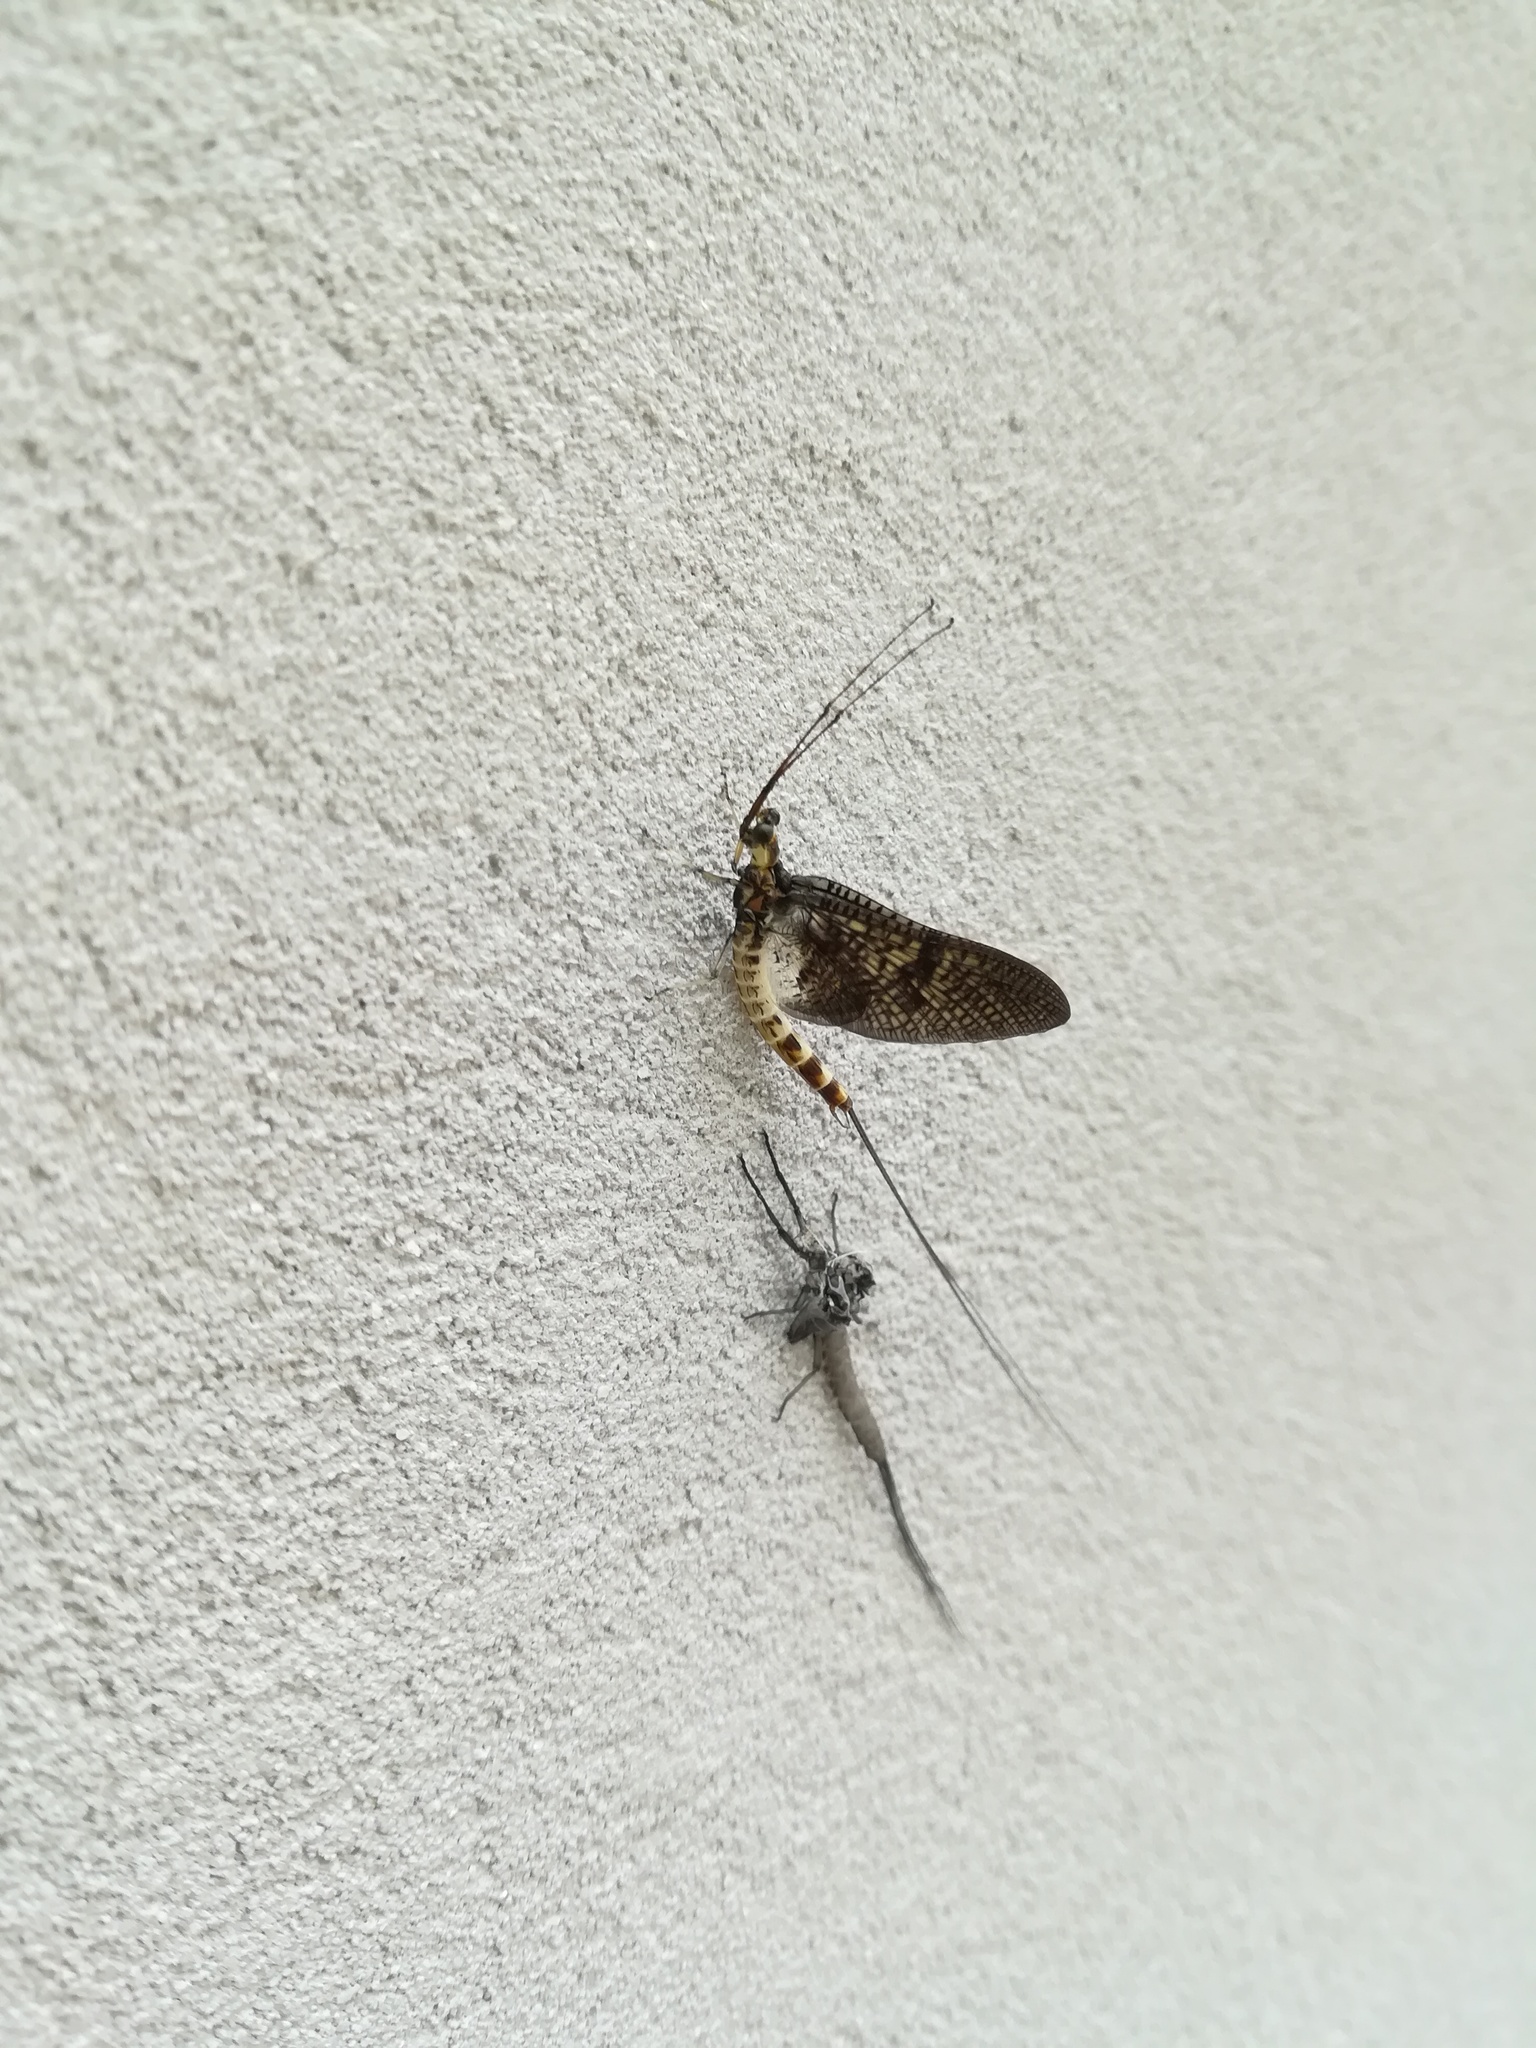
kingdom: Animalia
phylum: Arthropoda
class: Insecta
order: Ephemeroptera
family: Ephemeridae
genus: Ephemera
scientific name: Ephemera danica
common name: Green dun
